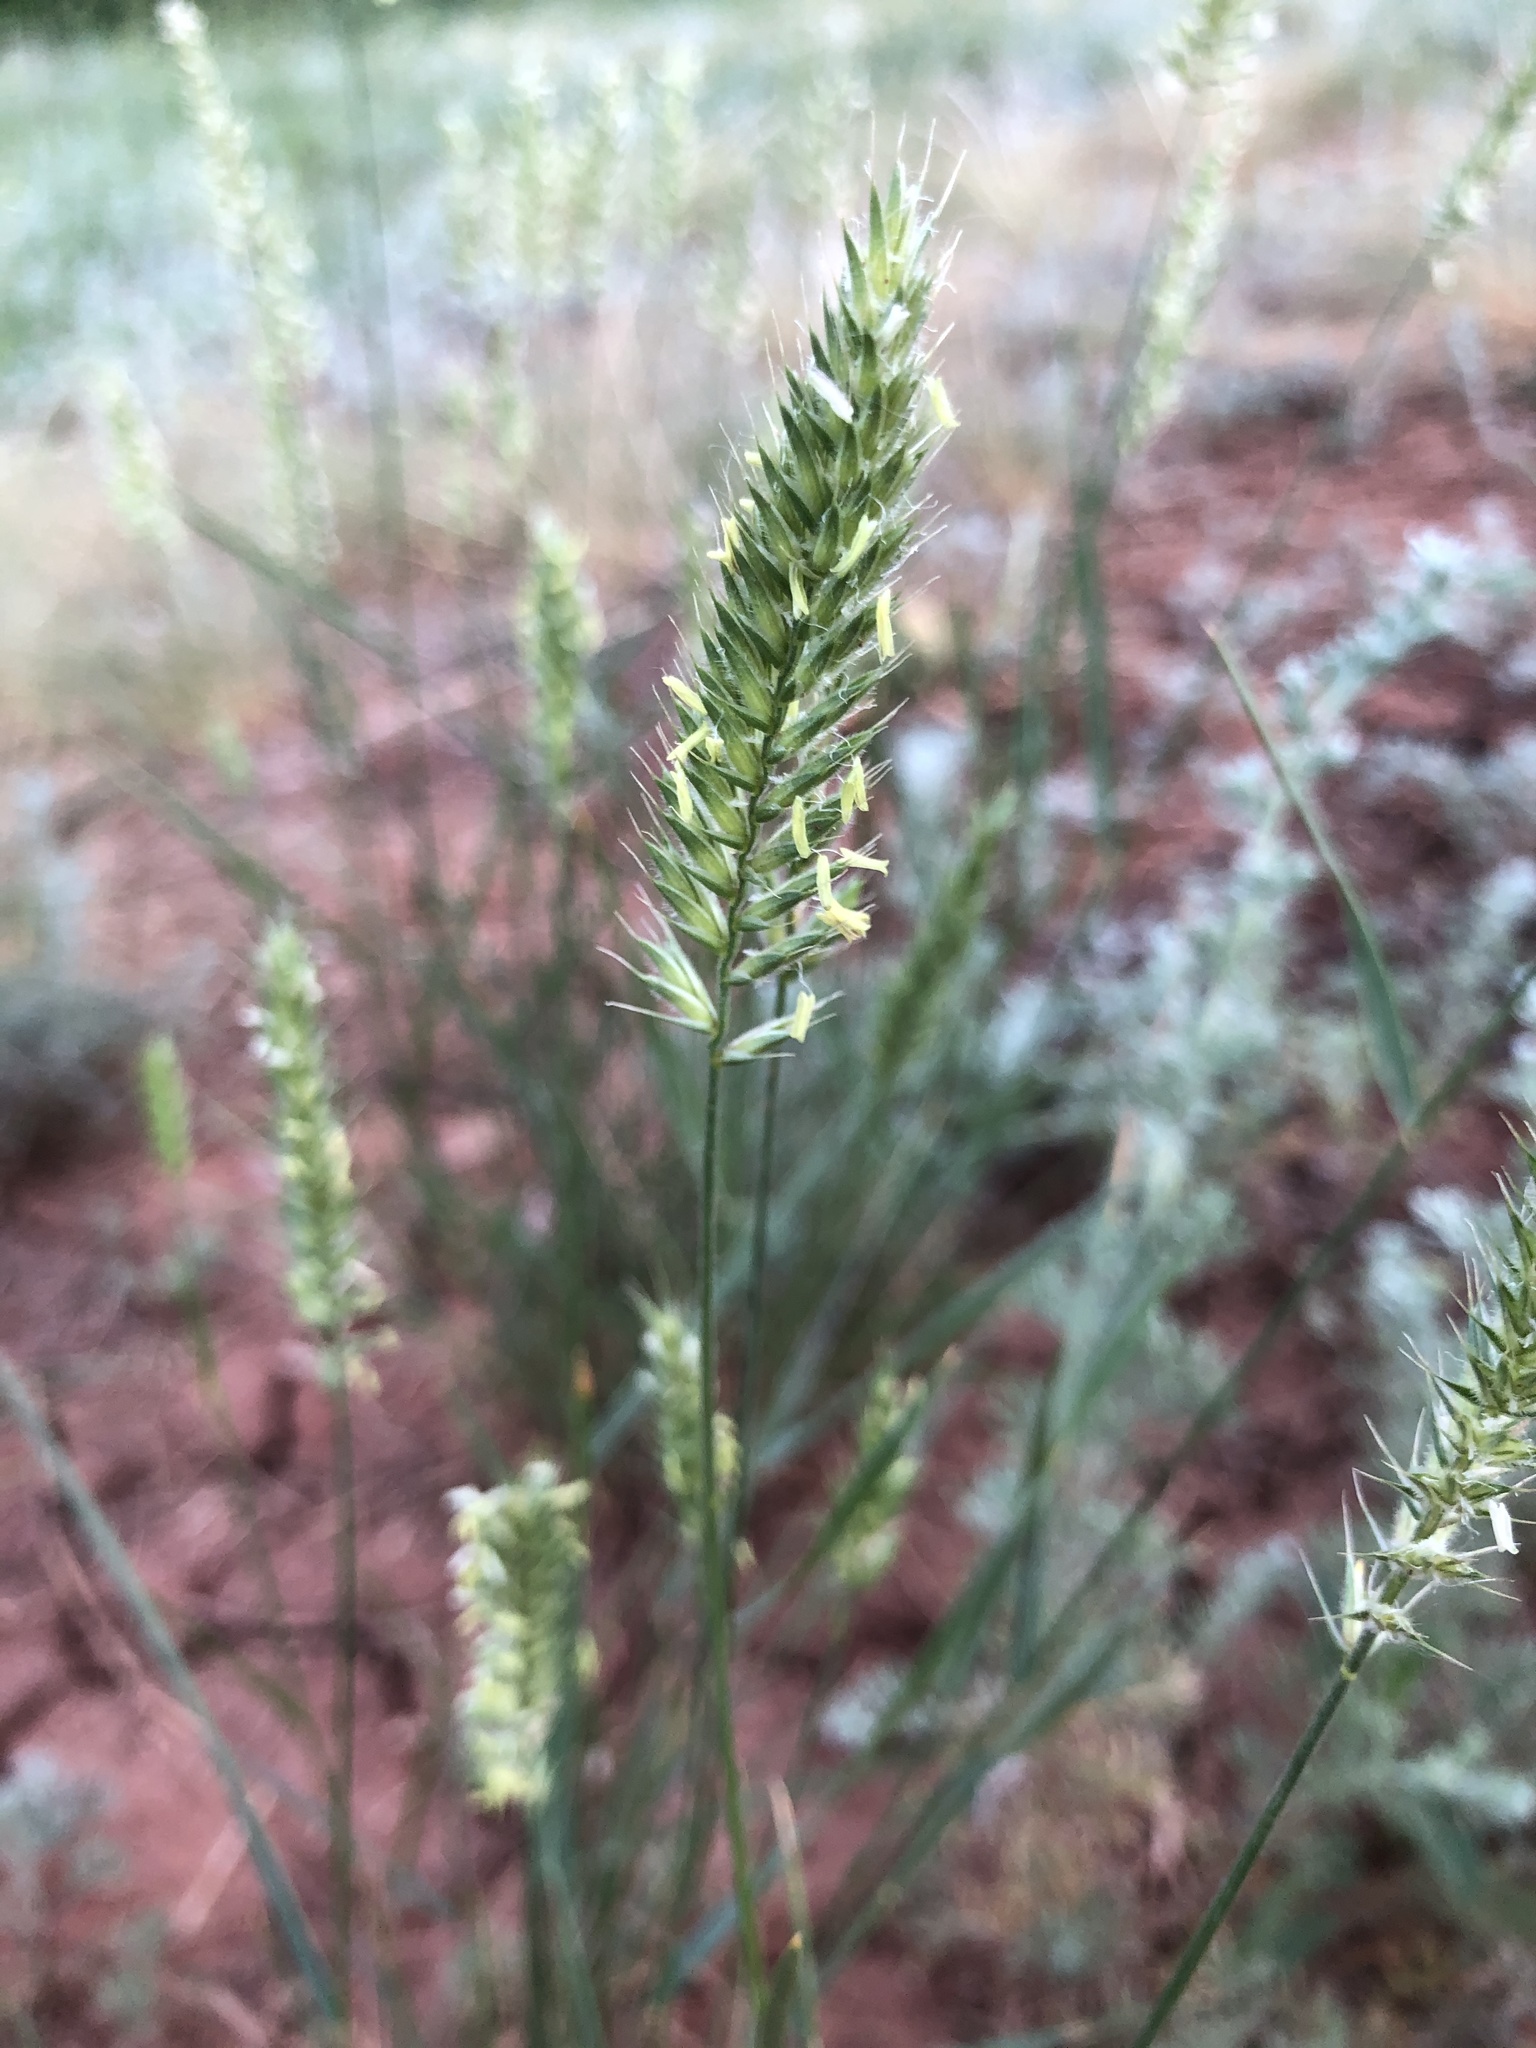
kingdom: Plantae
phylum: Tracheophyta
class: Liliopsida
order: Poales
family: Poaceae
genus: Agropyron
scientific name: Agropyron cristatum
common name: Crested wheatgrass
